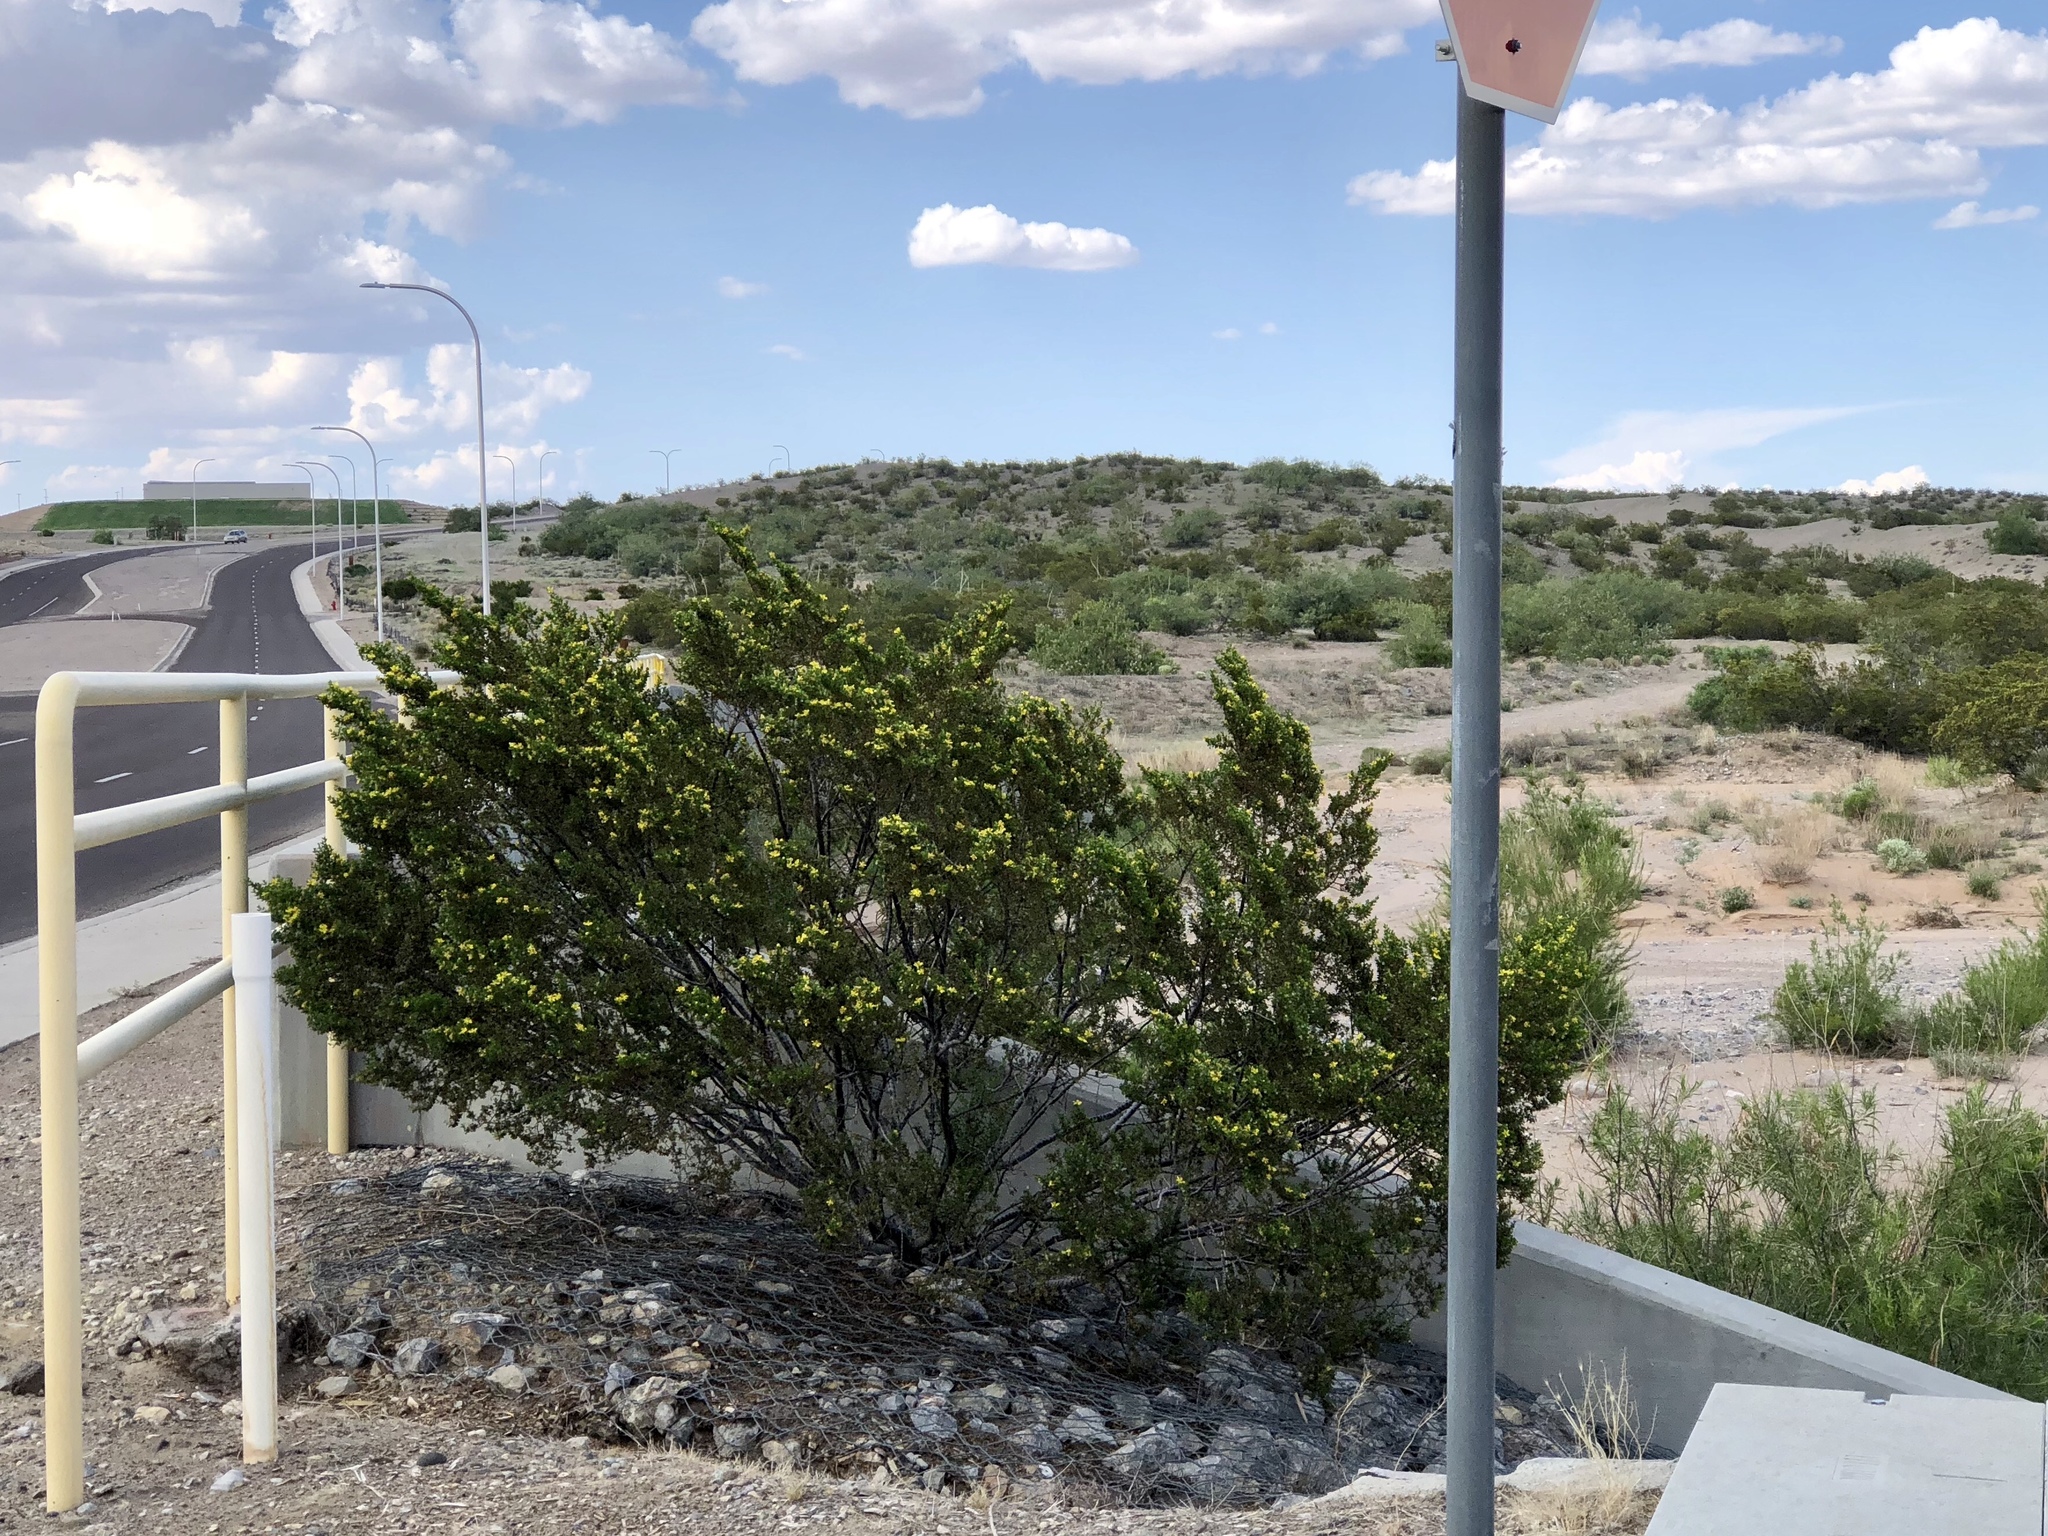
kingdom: Plantae
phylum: Tracheophyta
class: Magnoliopsida
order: Zygophyllales
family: Zygophyllaceae
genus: Larrea
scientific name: Larrea tridentata
